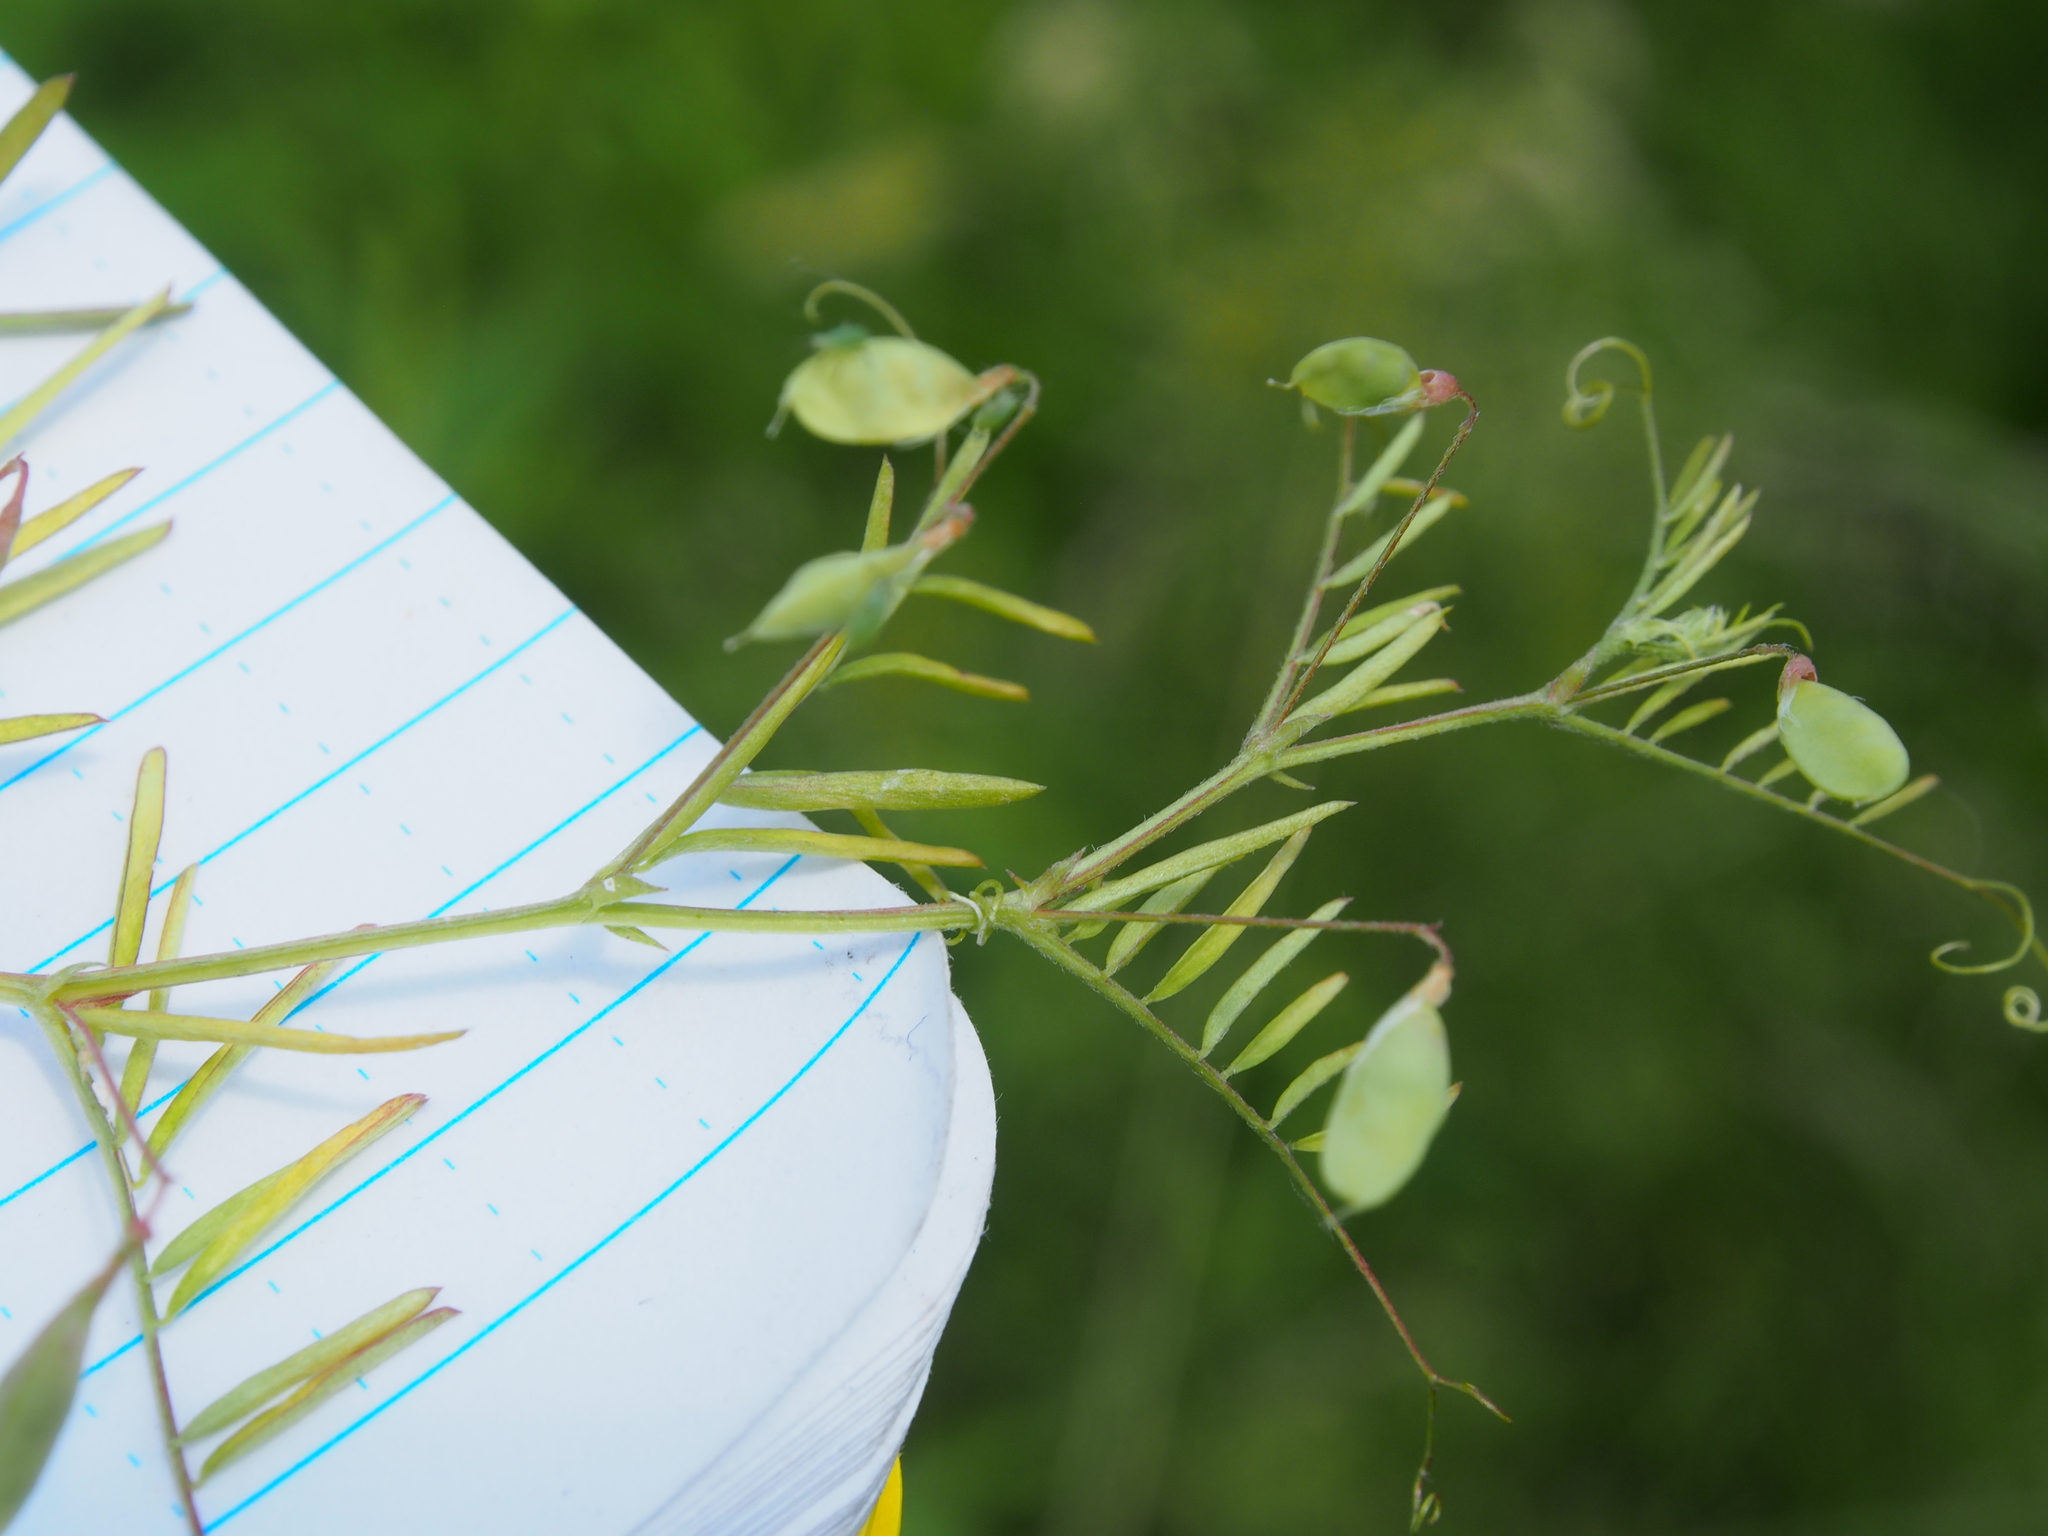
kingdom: Plantae
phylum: Tracheophyta
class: Magnoliopsida
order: Fabales
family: Fabaceae
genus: Vicia
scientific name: Vicia tetrasperma
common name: Smooth tare
